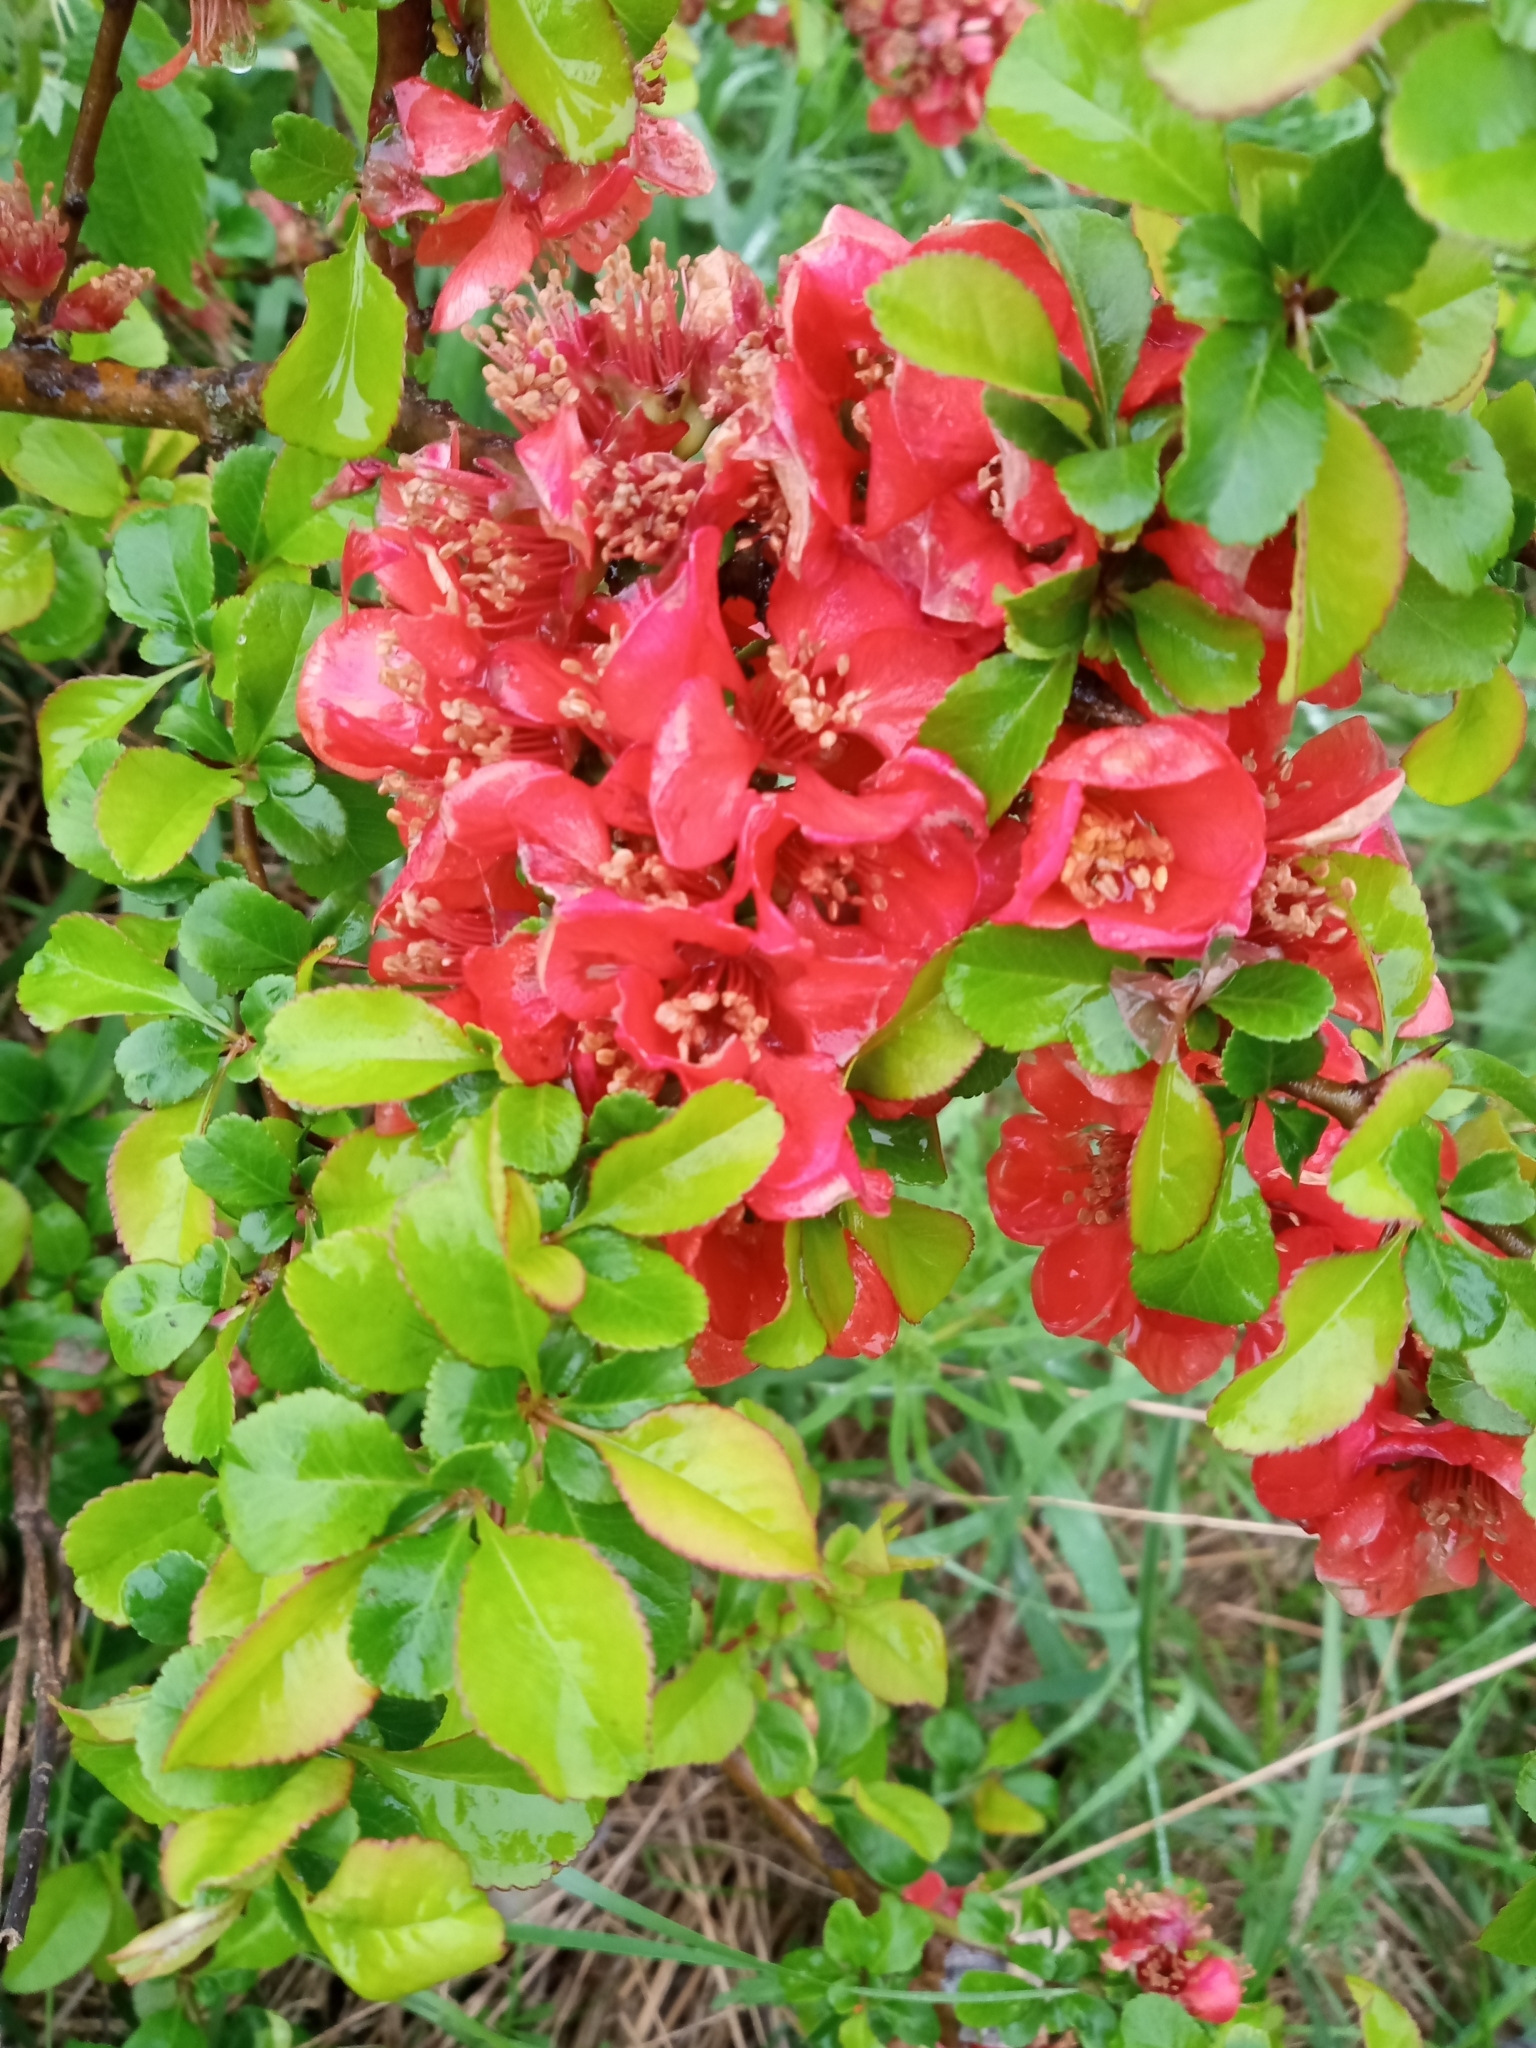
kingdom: Plantae
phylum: Tracheophyta
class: Magnoliopsida
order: Rosales
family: Rosaceae
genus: Chaenomeles
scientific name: Chaenomeles japonica
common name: Japanese quince
